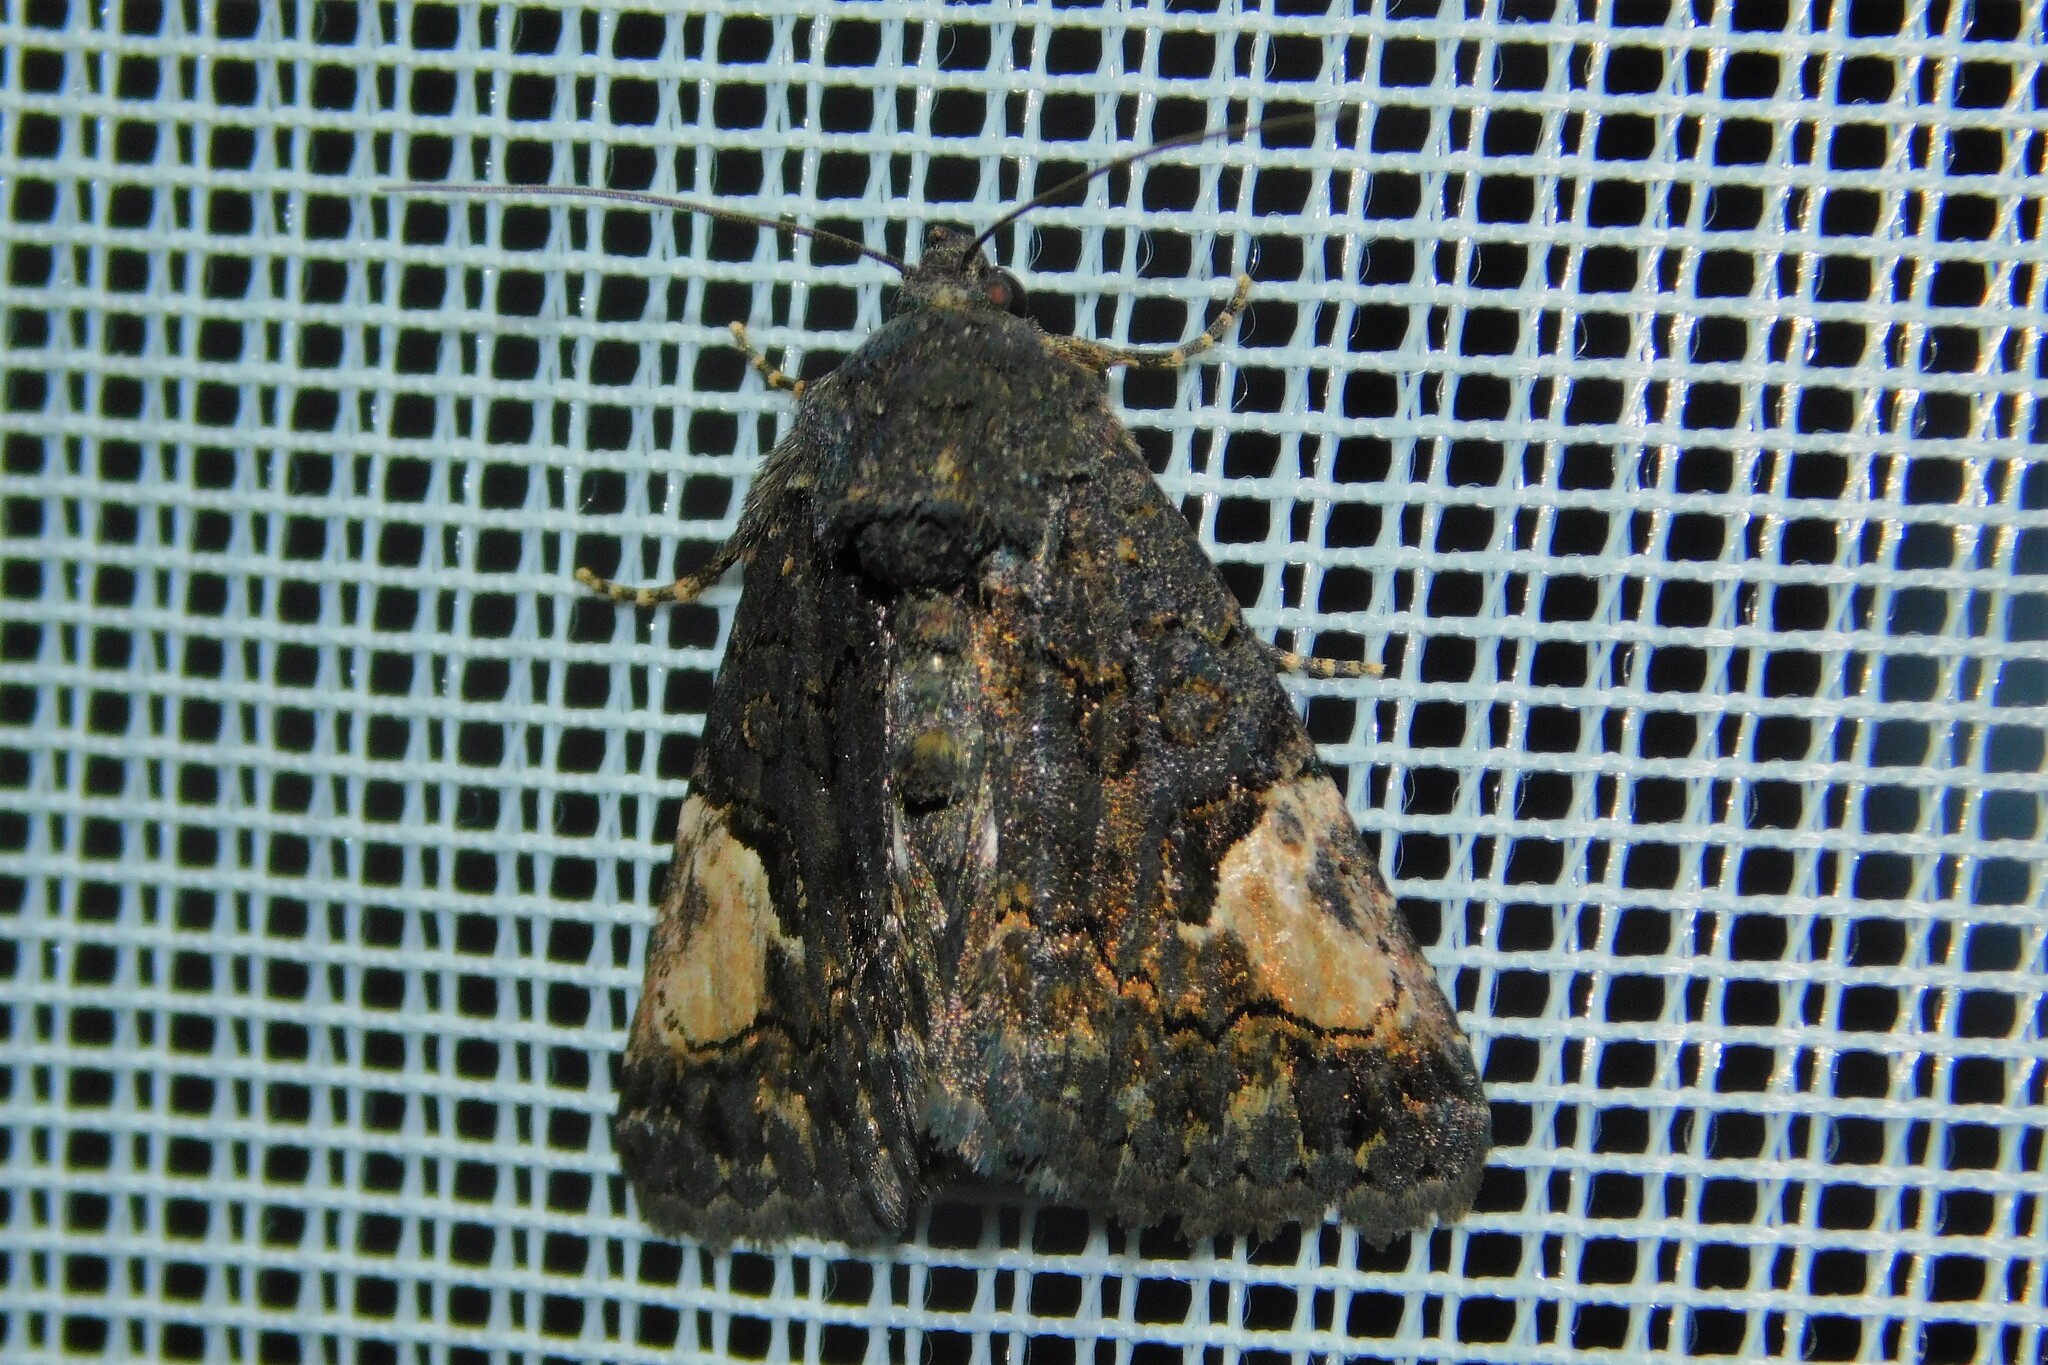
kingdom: Animalia
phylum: Arthropoda
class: Insecta
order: Lepidoptera
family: Noctuidae
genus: Aedia
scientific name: Aedia funesta
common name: The druid
